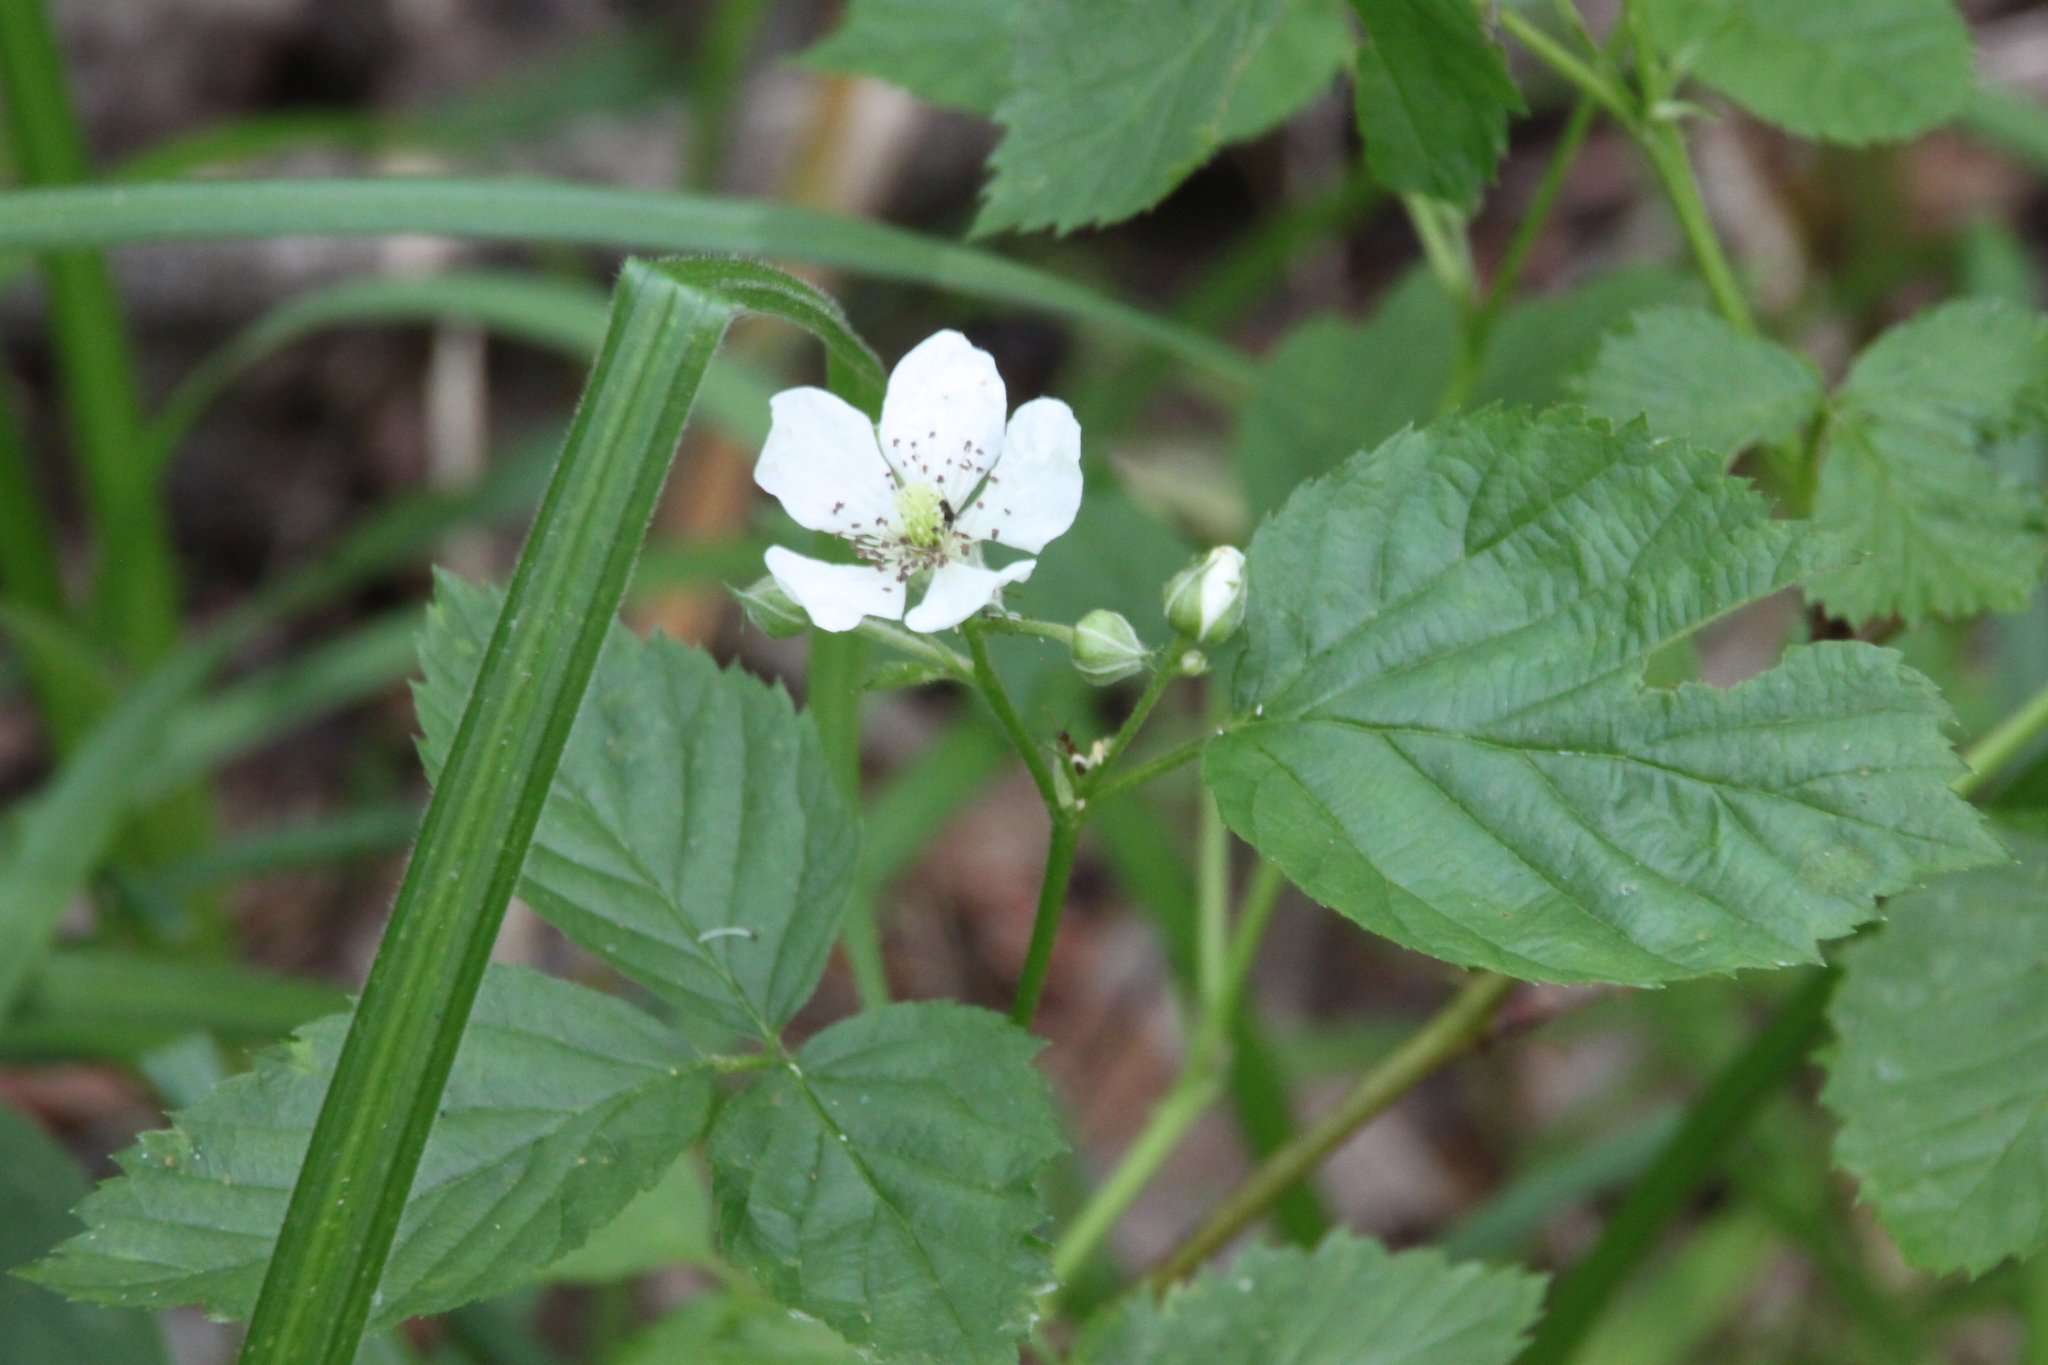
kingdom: Plantae
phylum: Tracheophyta
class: Magnoliopsida
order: Rosales
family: Rosaceae
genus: Rubus
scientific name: Rubus polonicus
